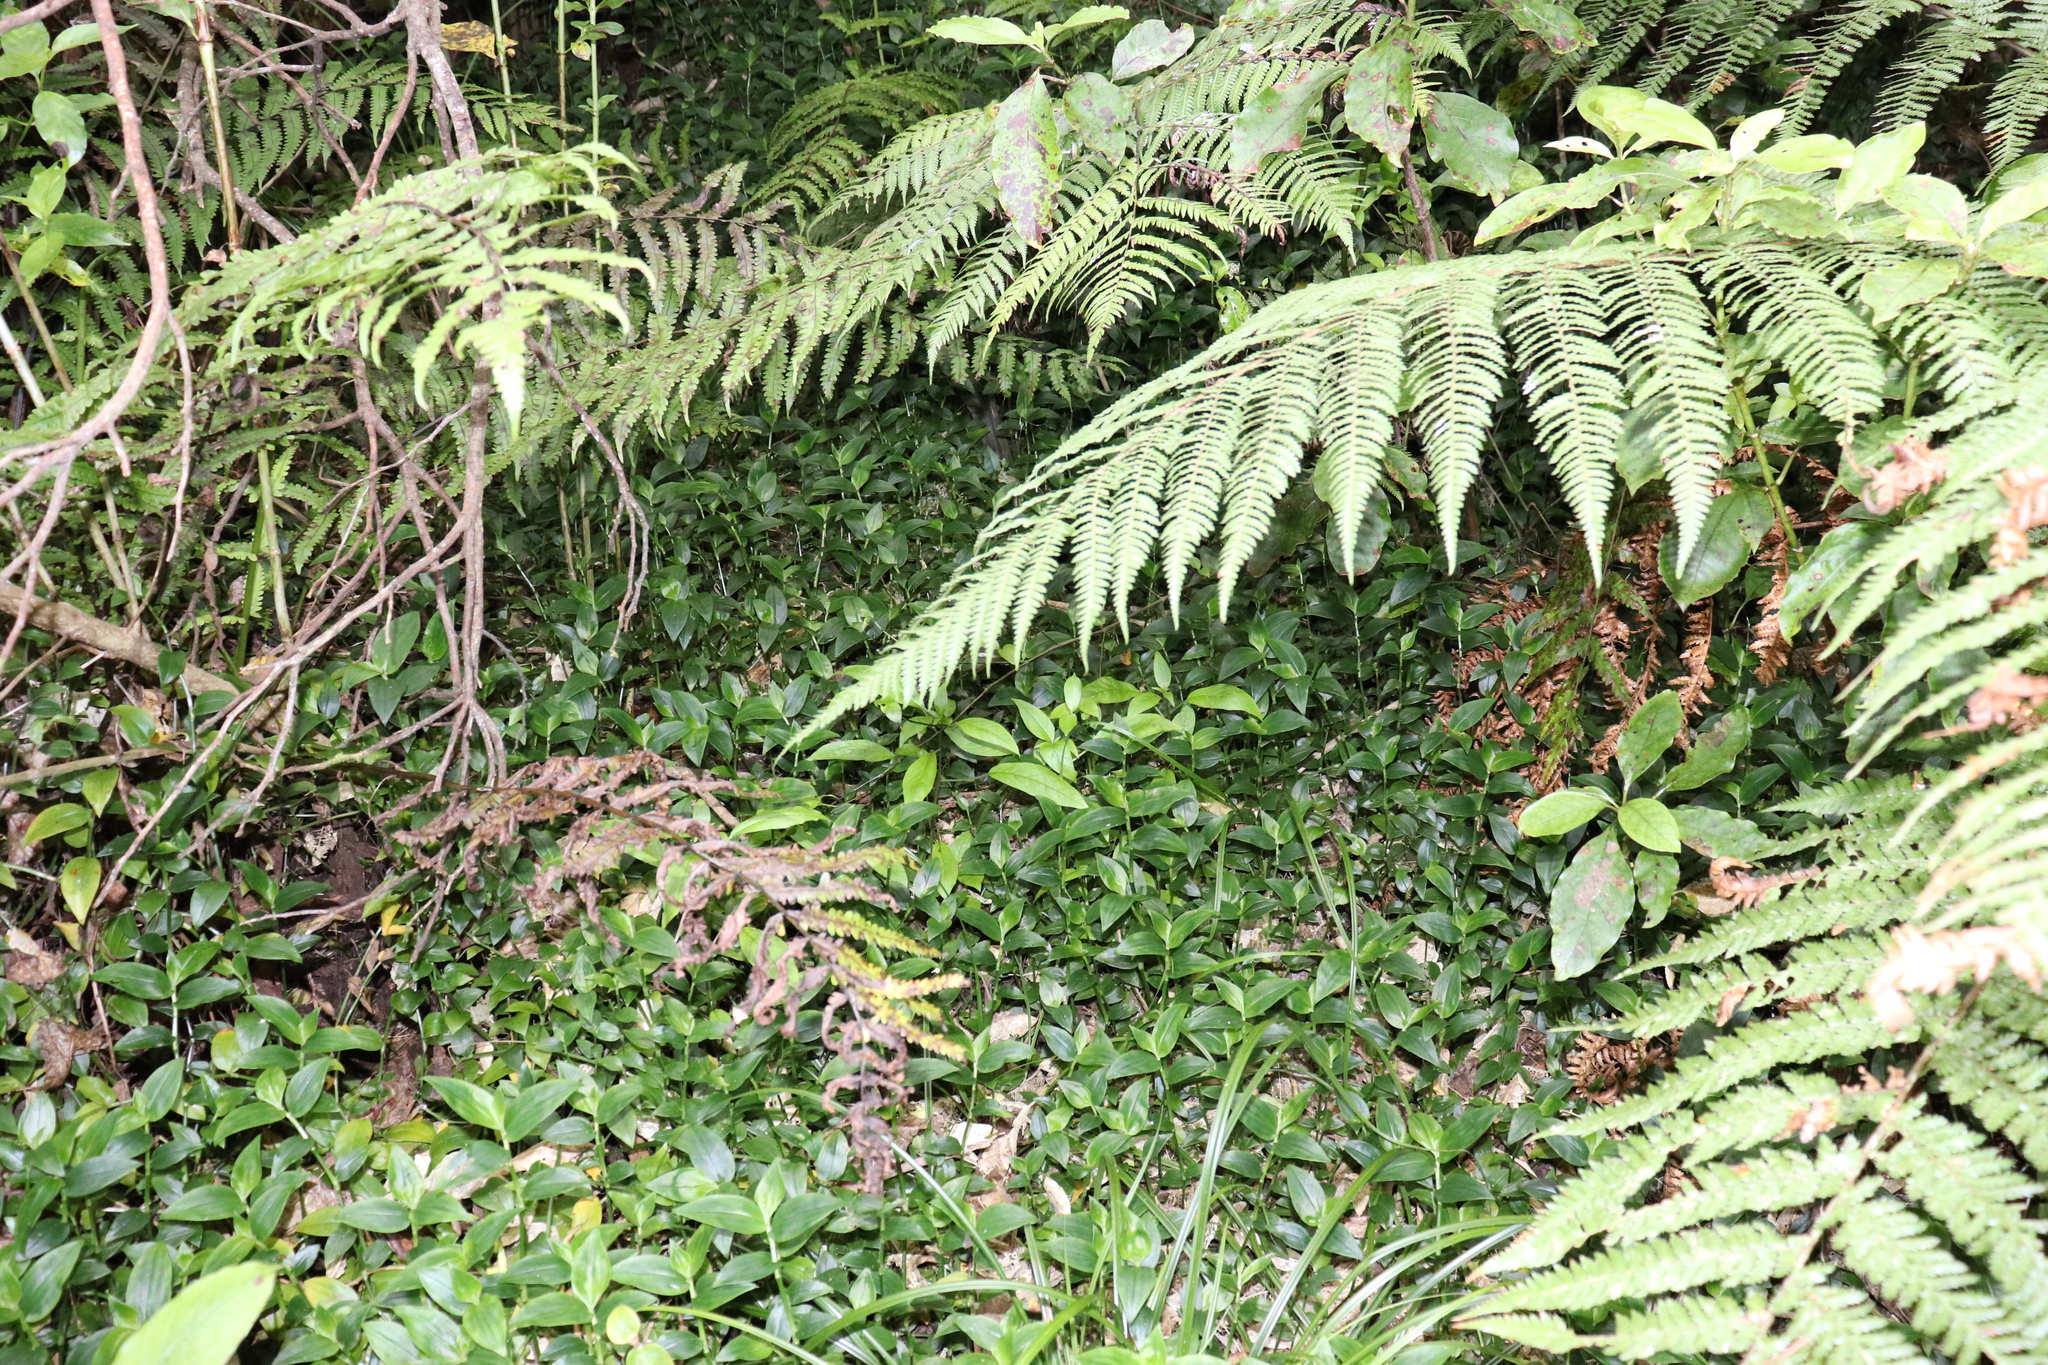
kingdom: Plantae
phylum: Tracheophyta
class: Liliopsida
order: Commelinales
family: Commelinaceae
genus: Tradescantia
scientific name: Tradescantia fluminensis
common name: Wandering-jew
